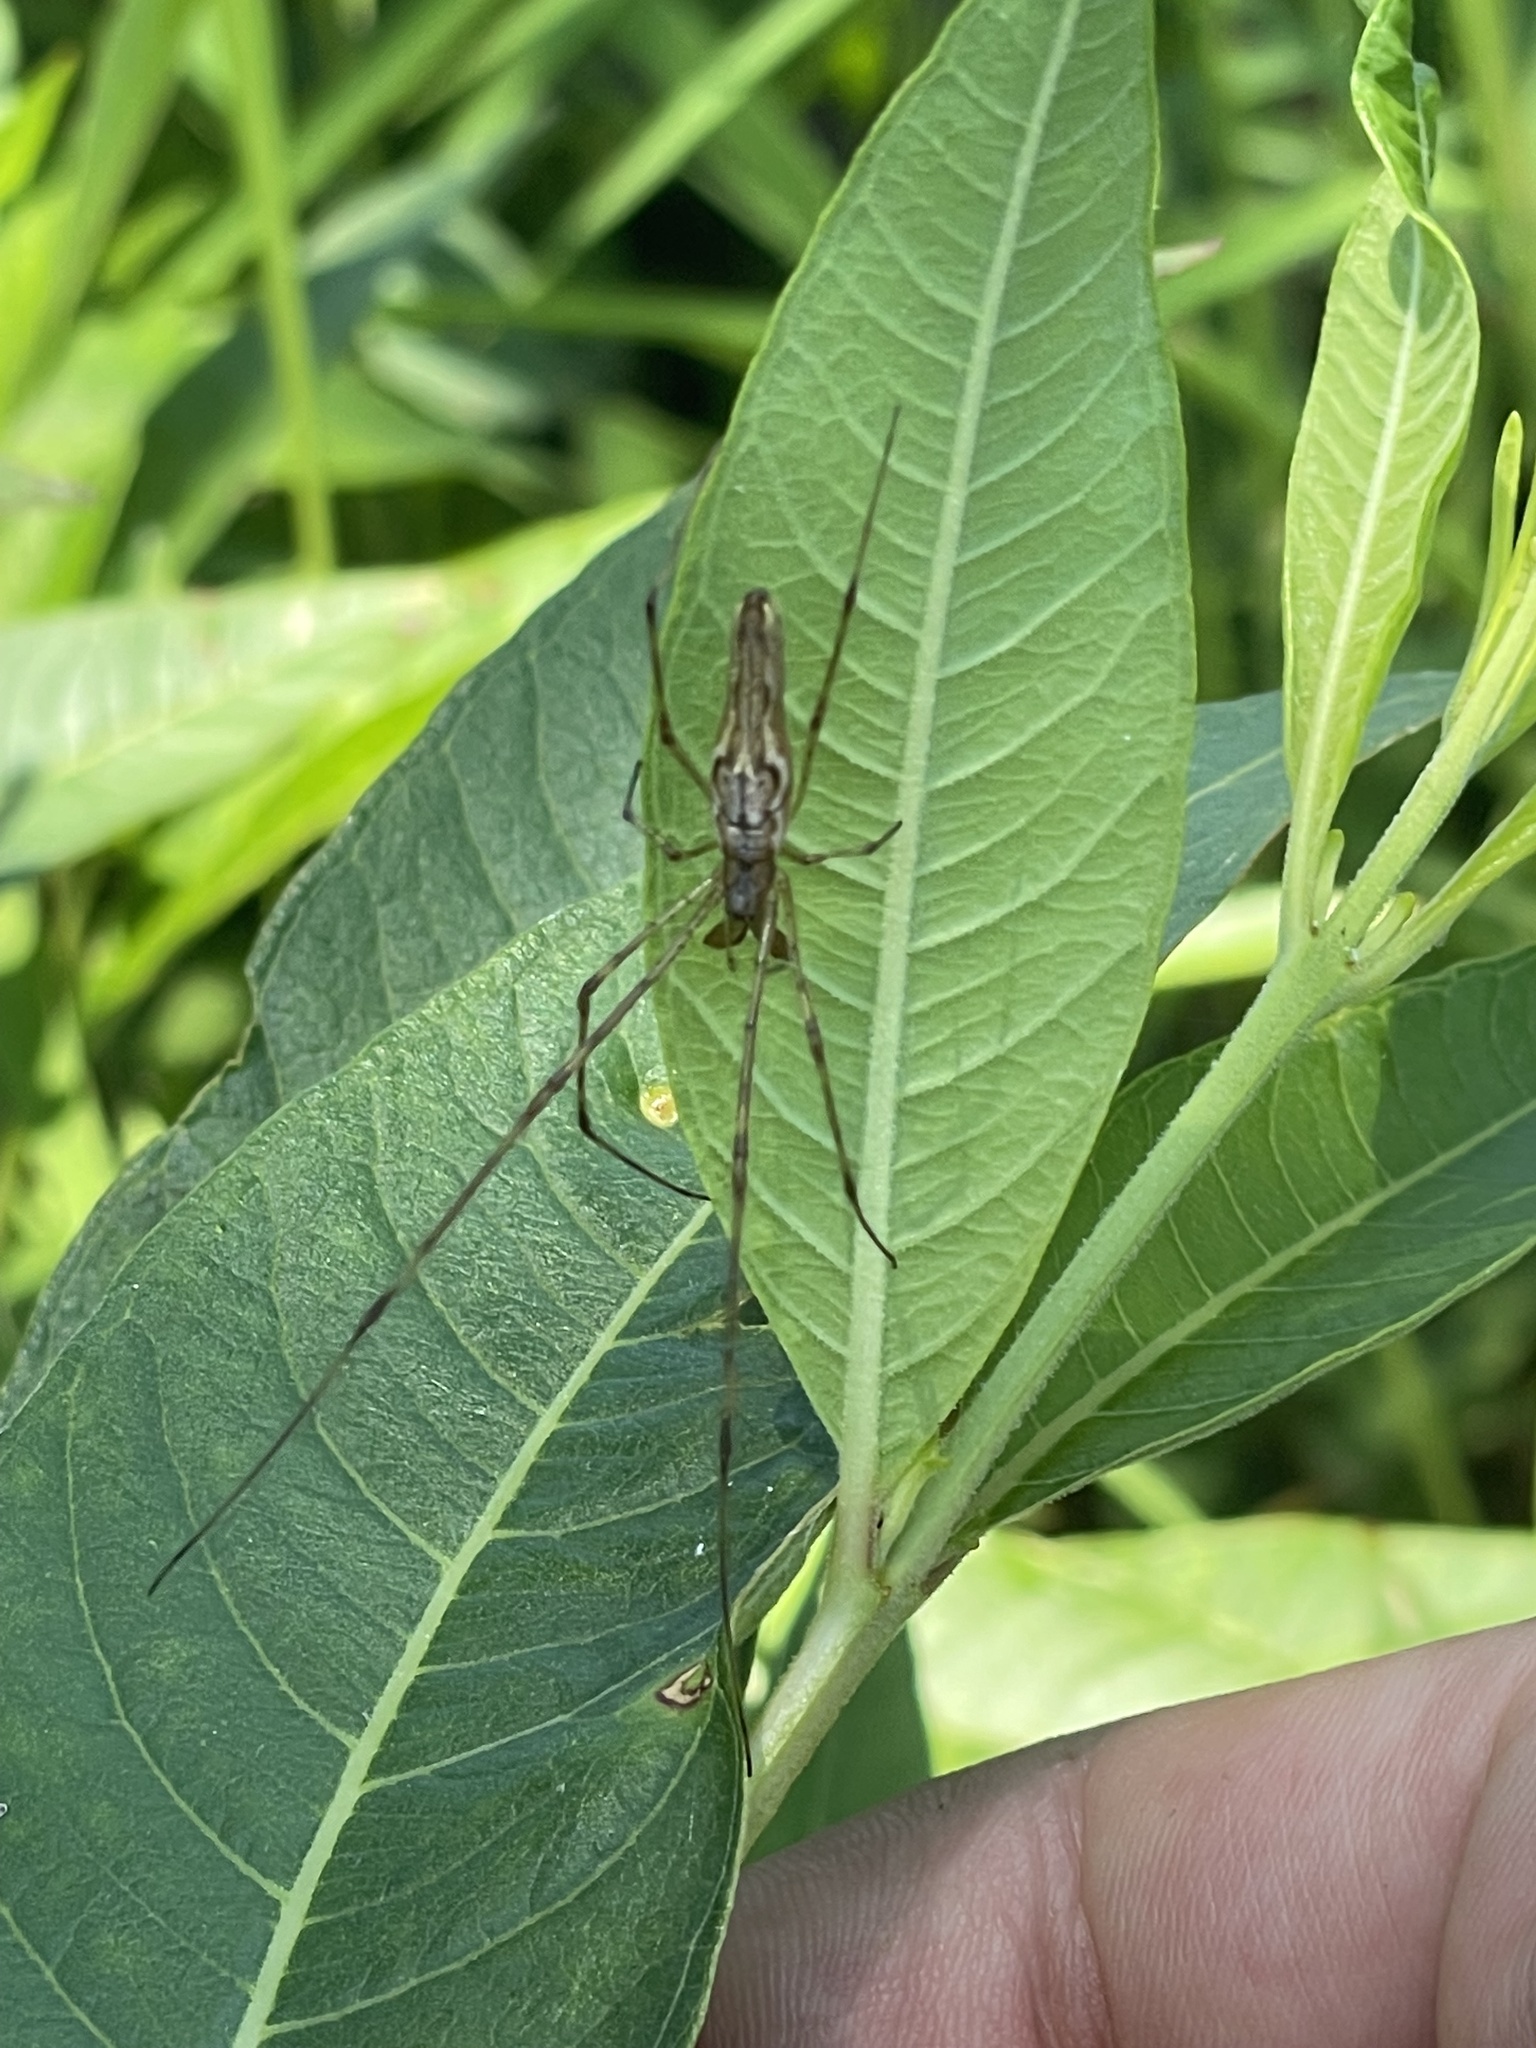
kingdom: Animalia
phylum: Arthropoda
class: Arachnida
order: Araneae
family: Tetragnathidae
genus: Tetragnatha
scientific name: Tetragnatha
